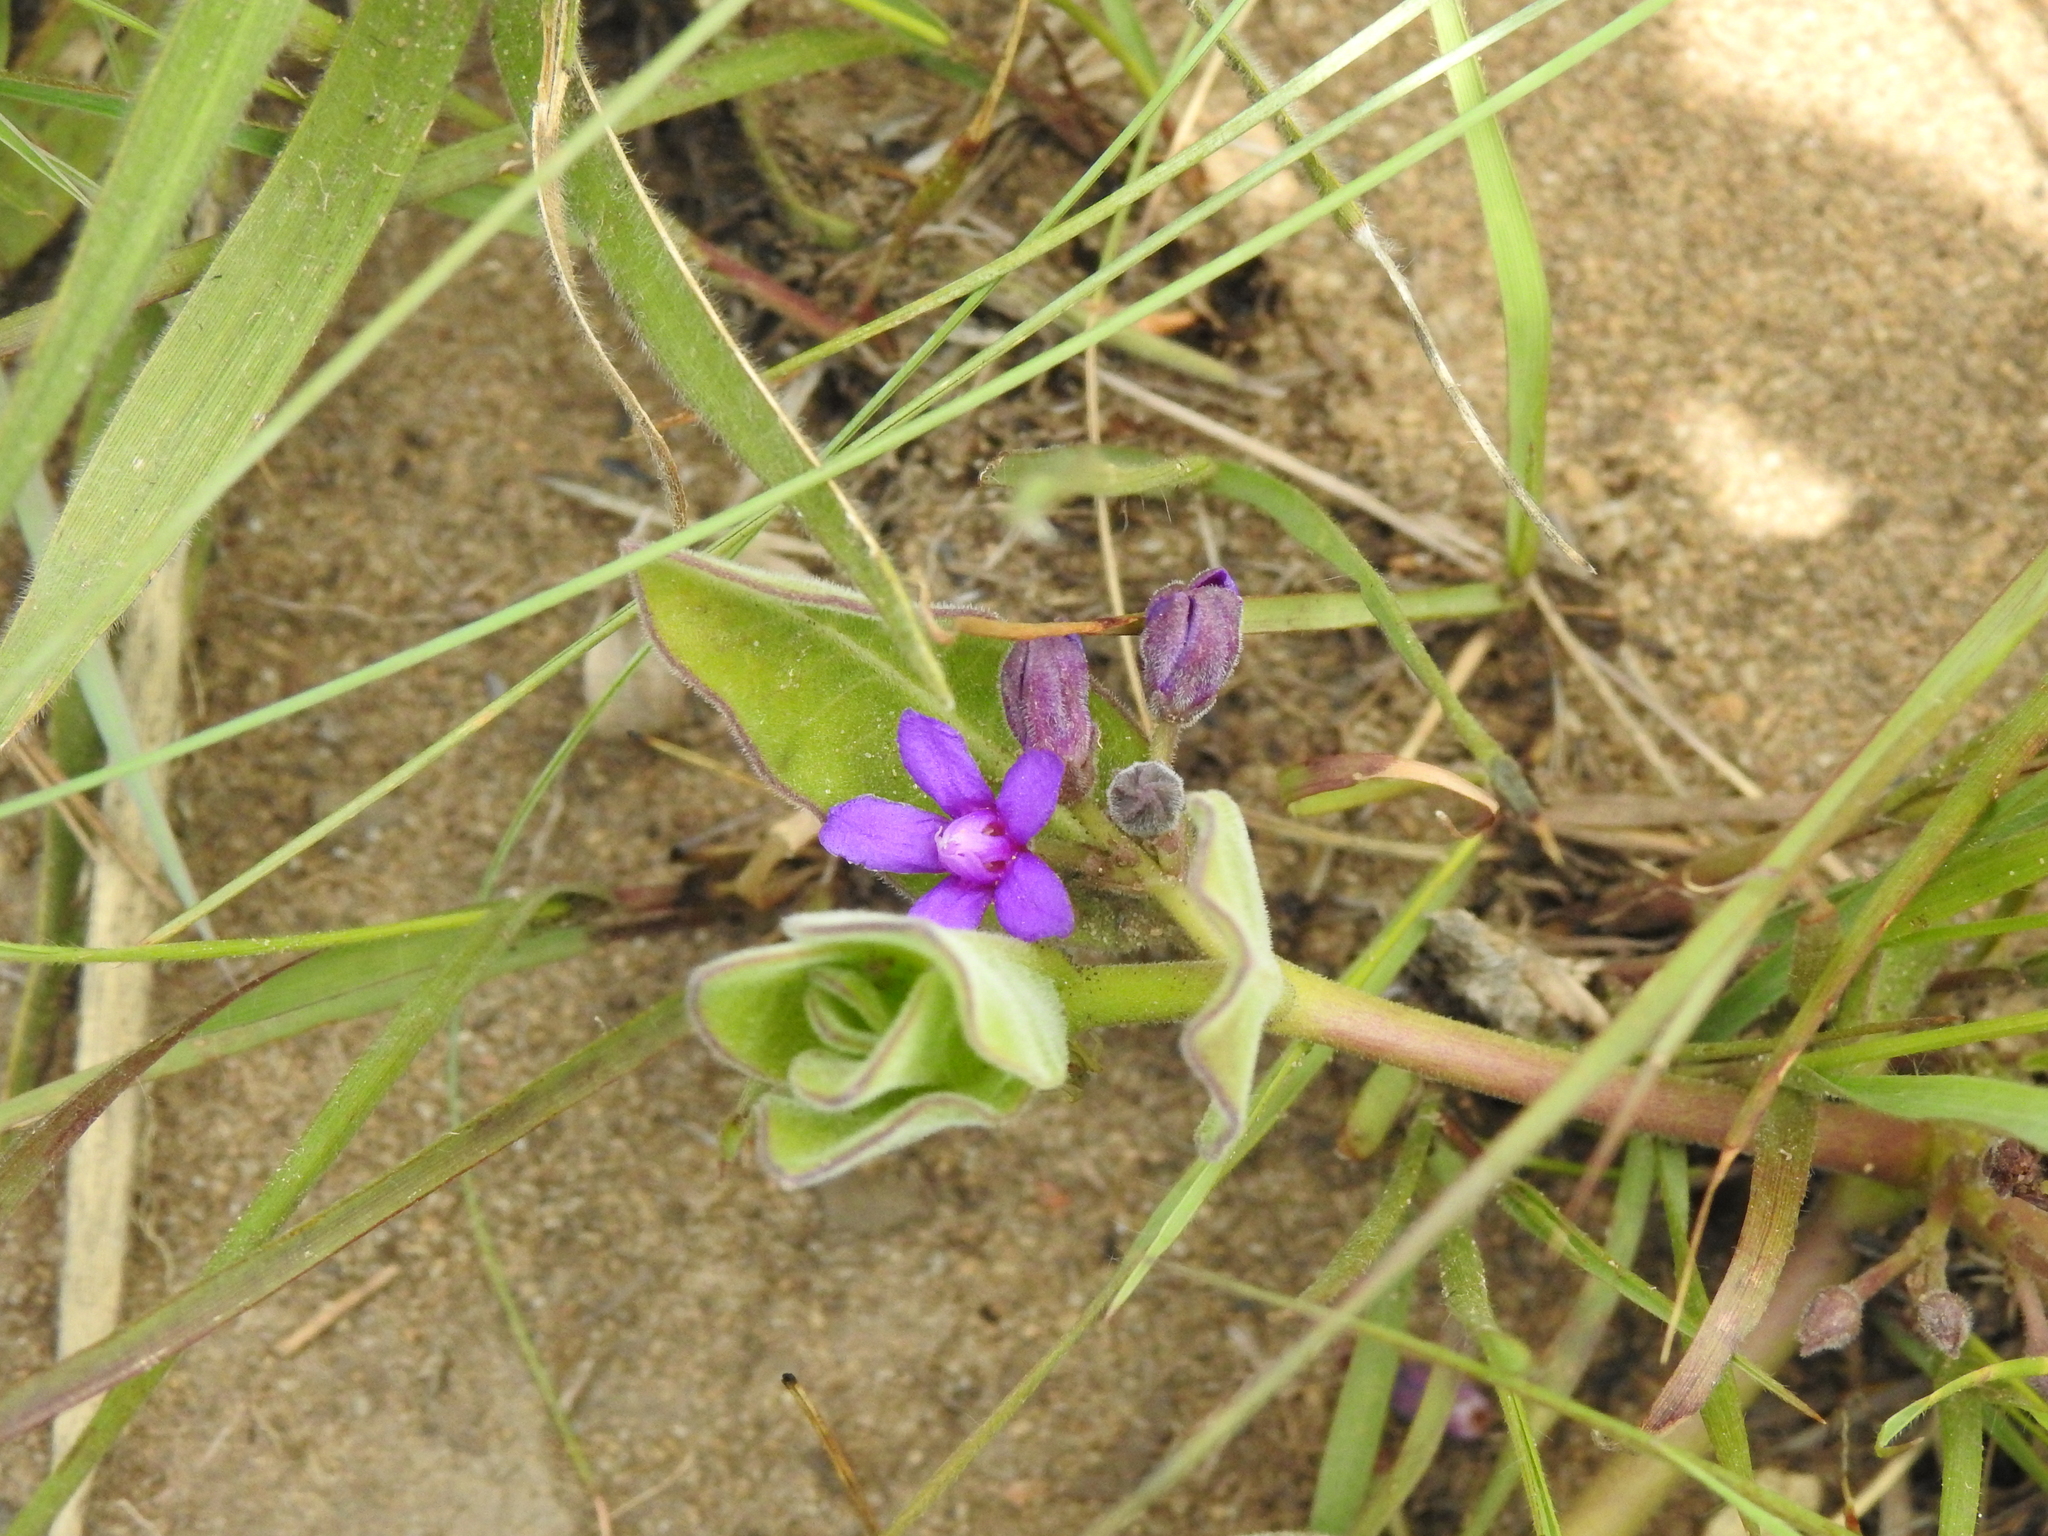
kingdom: Plantae
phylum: Tracheophyta
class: Magnoliopsida
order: Gentianales
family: Apocynaceae
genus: Raphionacme
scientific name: Raphionacme hirsuta
